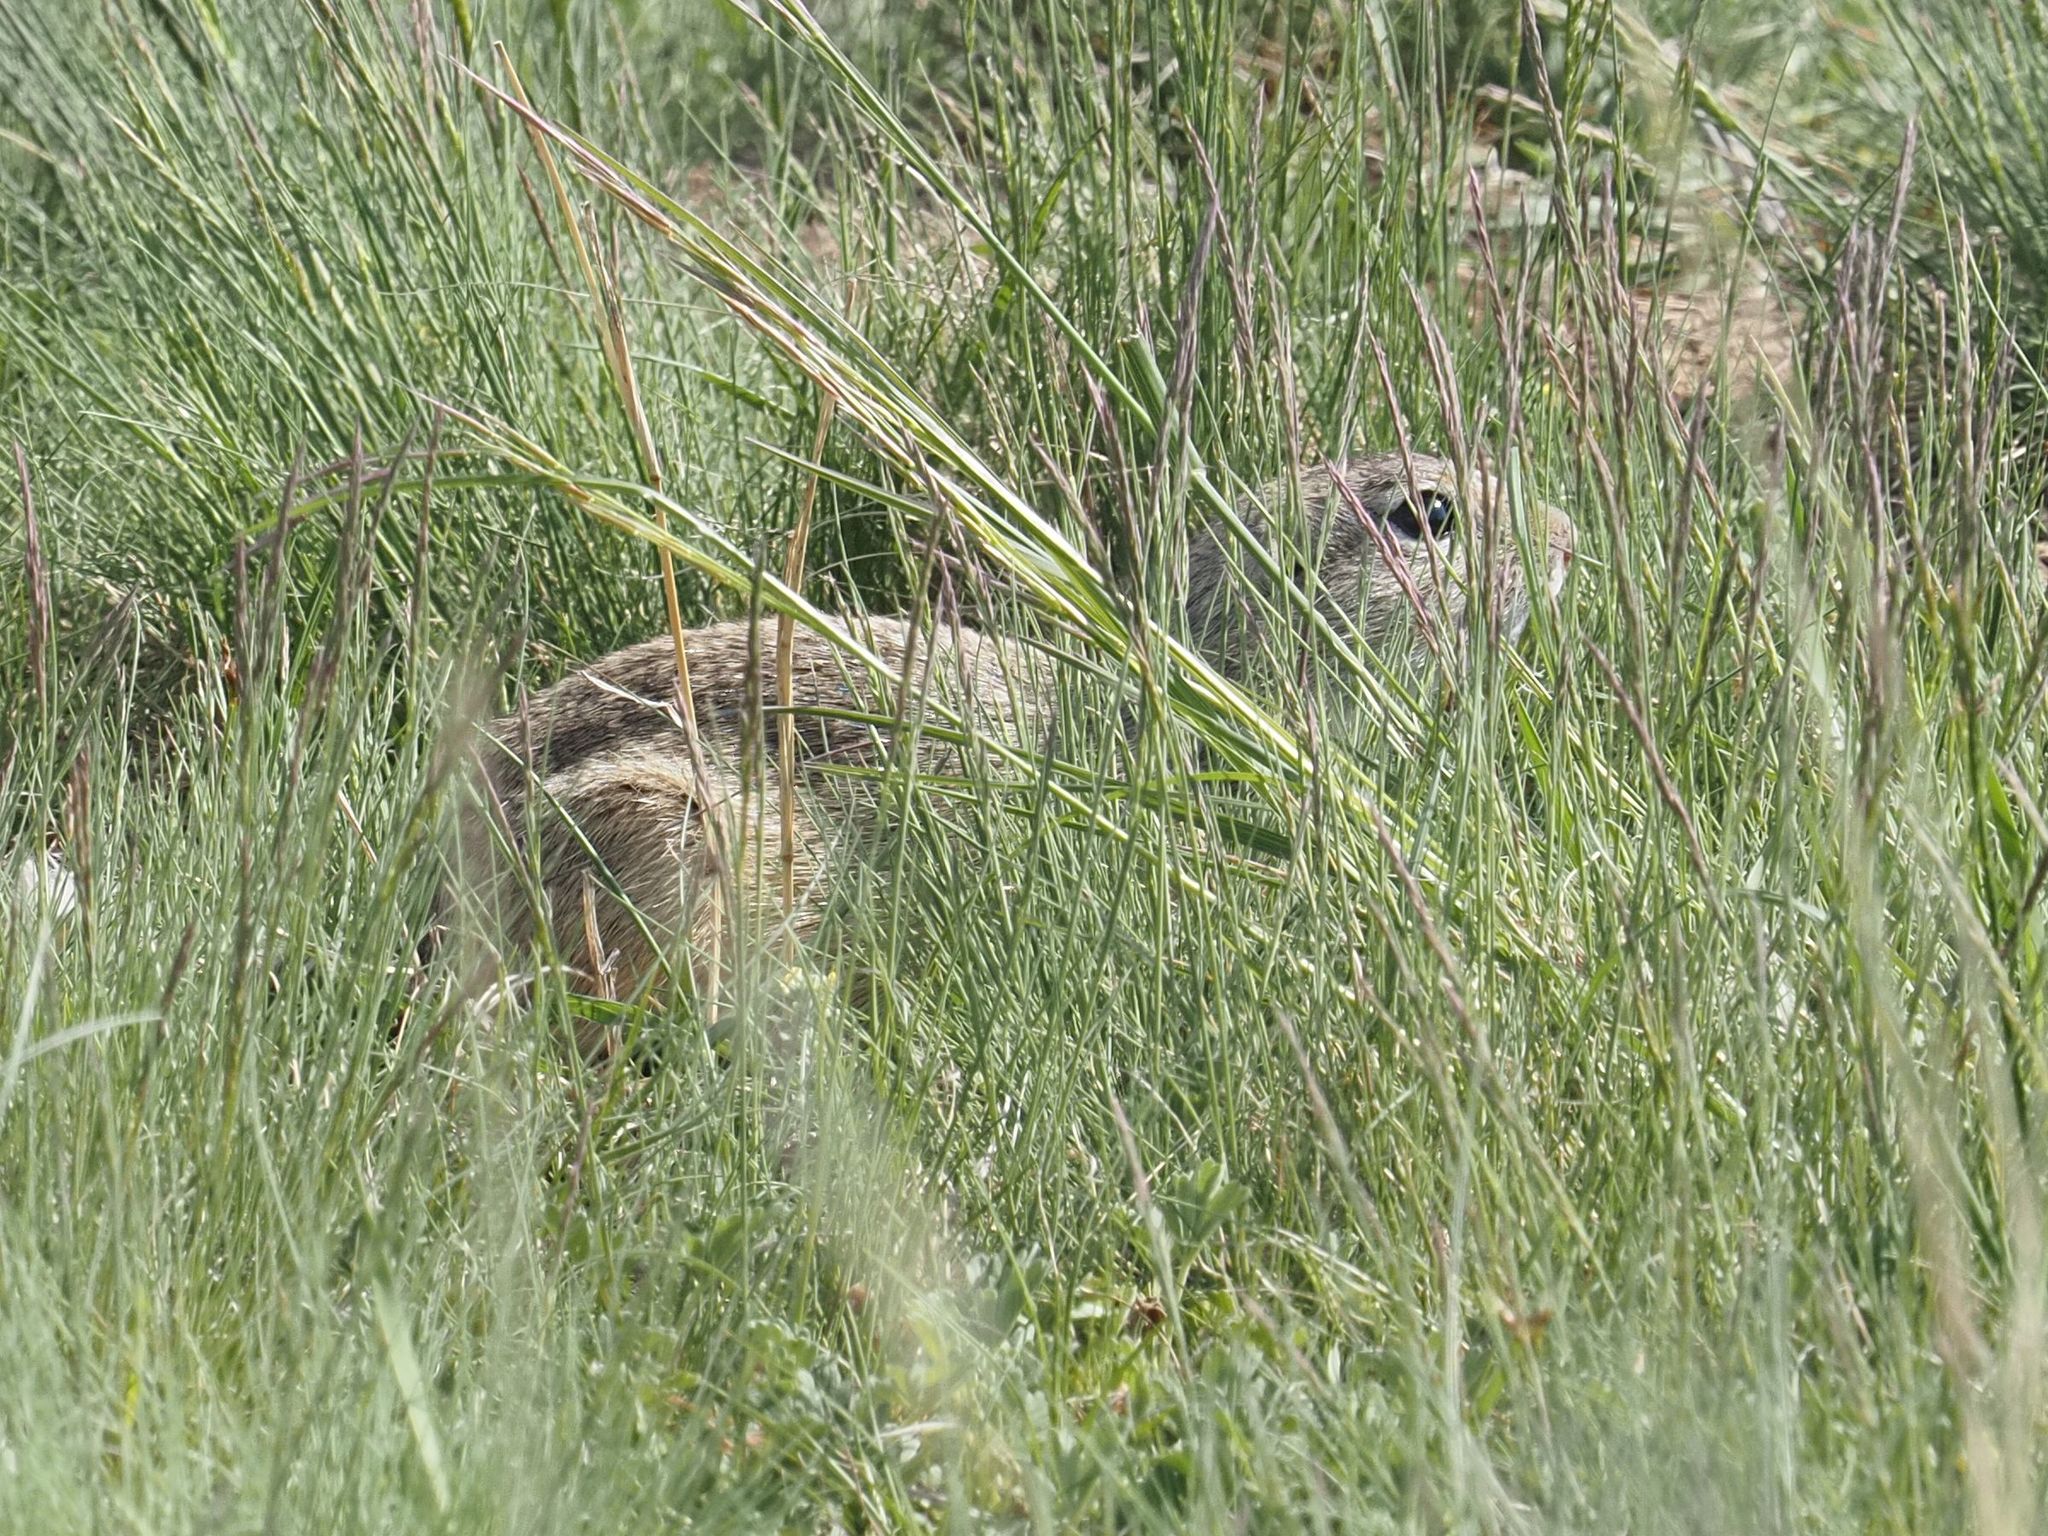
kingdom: Animalia
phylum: Chordata
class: Mammalia
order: Rodentia
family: Sciuridae
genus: Spermophilus
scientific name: Spermophilus citellus
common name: European ground squirrel
